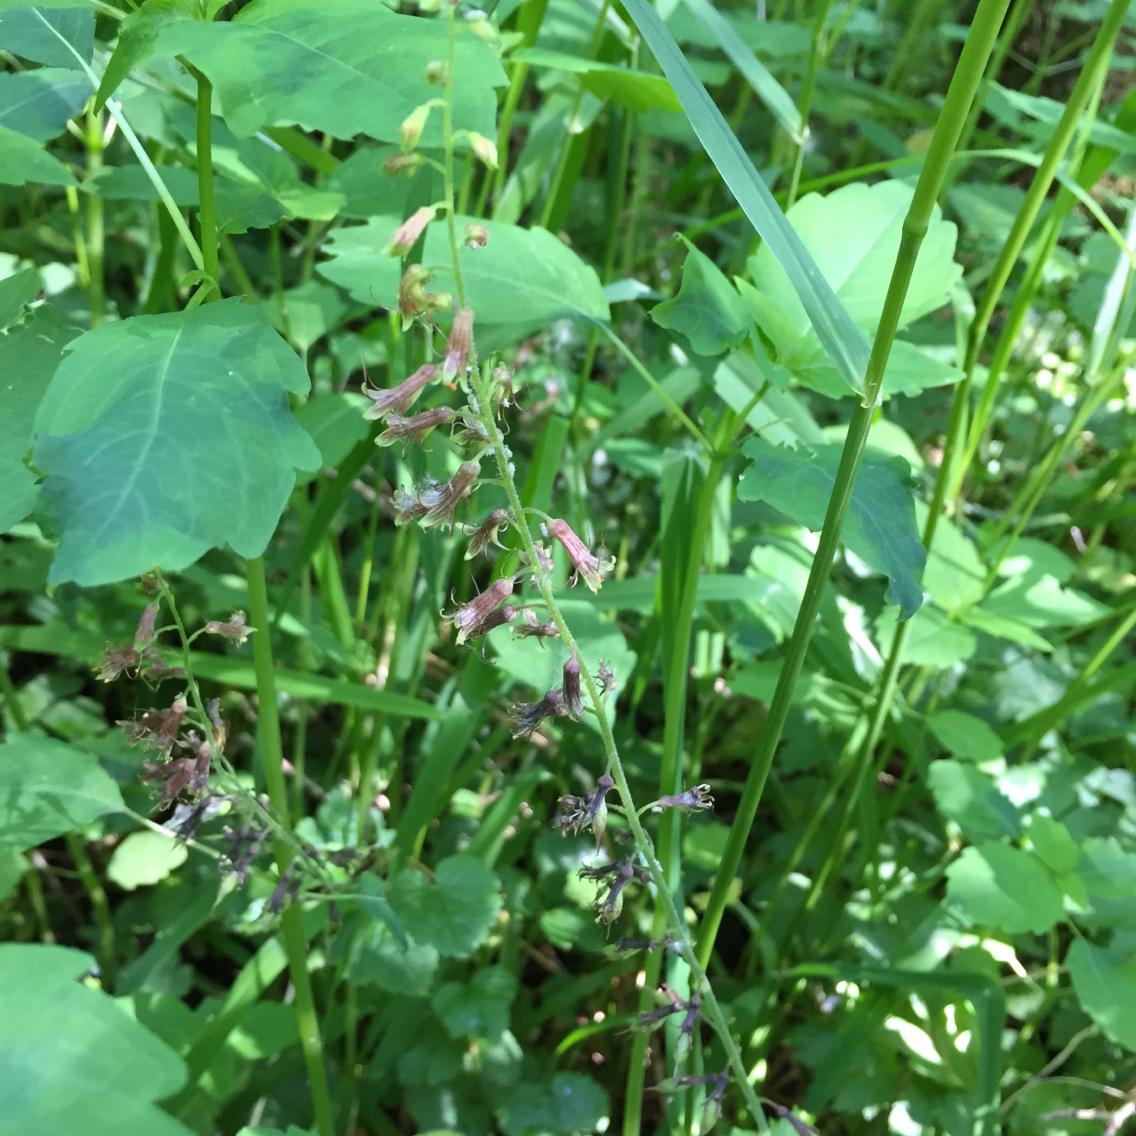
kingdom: Plantae
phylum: Tracheophyta
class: Magnoliopsida
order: Saxifragales
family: Saxifragaceae
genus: Tolmiea
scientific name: Tolmiea menziesii
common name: Pick-a-back-plant
